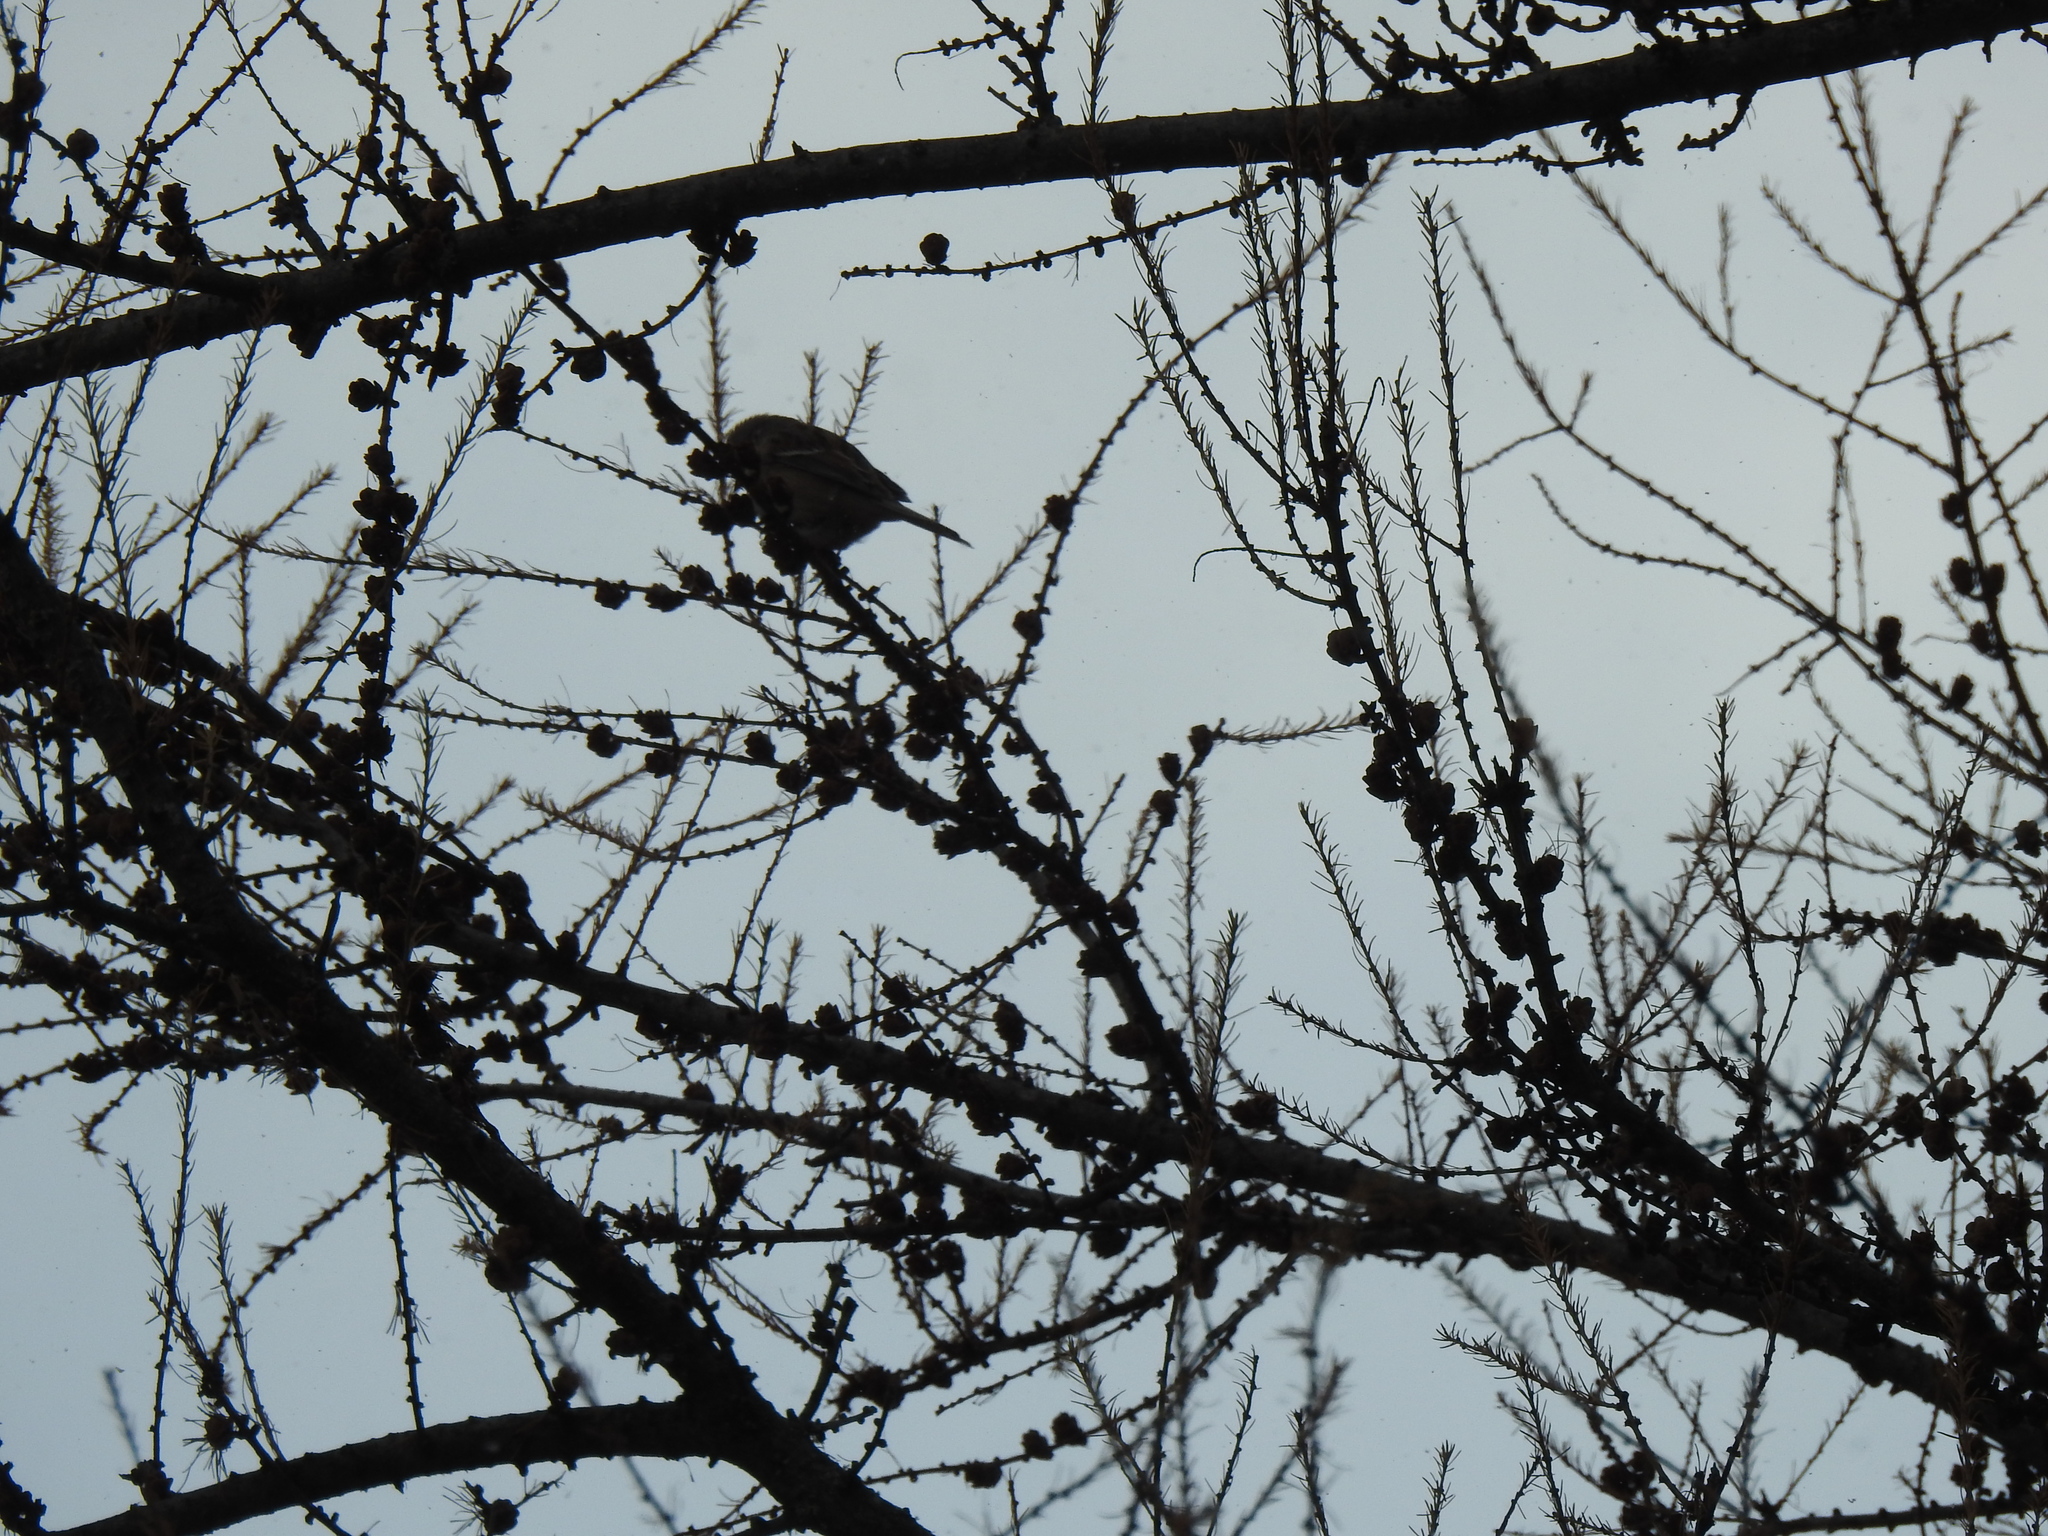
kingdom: Animalia
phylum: Chordata
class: Aves
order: Passeriformes
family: Passerellidae
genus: Spizelloides
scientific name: Spizelloides arborea
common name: American tree sparrow
